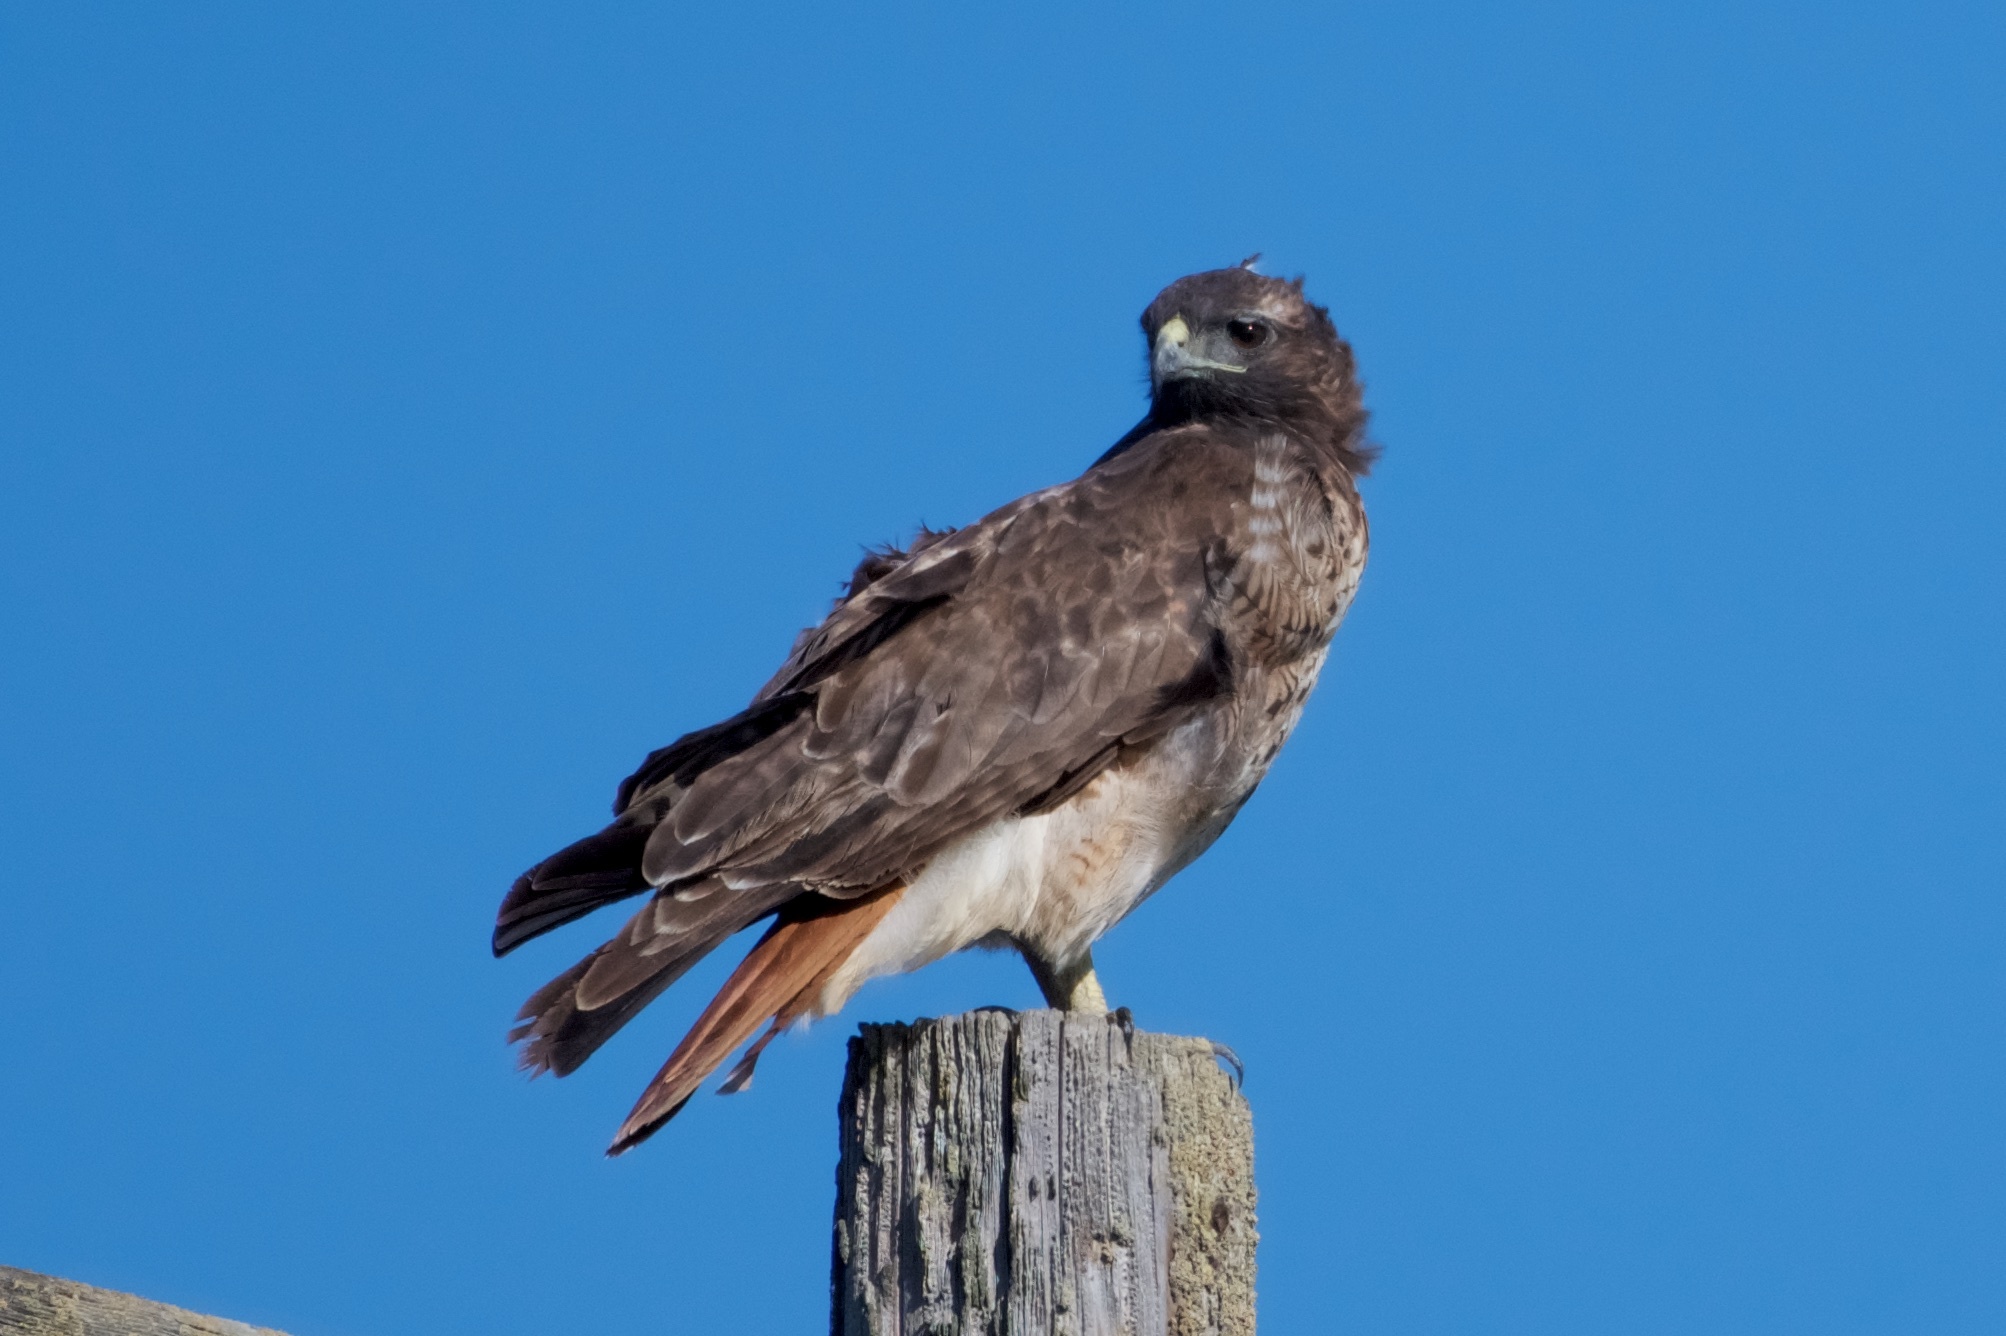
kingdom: Animalia
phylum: Chordata
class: Aves
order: Accipitriformes
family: Accipitridae
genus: Buteo
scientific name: Buteo jamaicensis
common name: Red-tailed hawk
